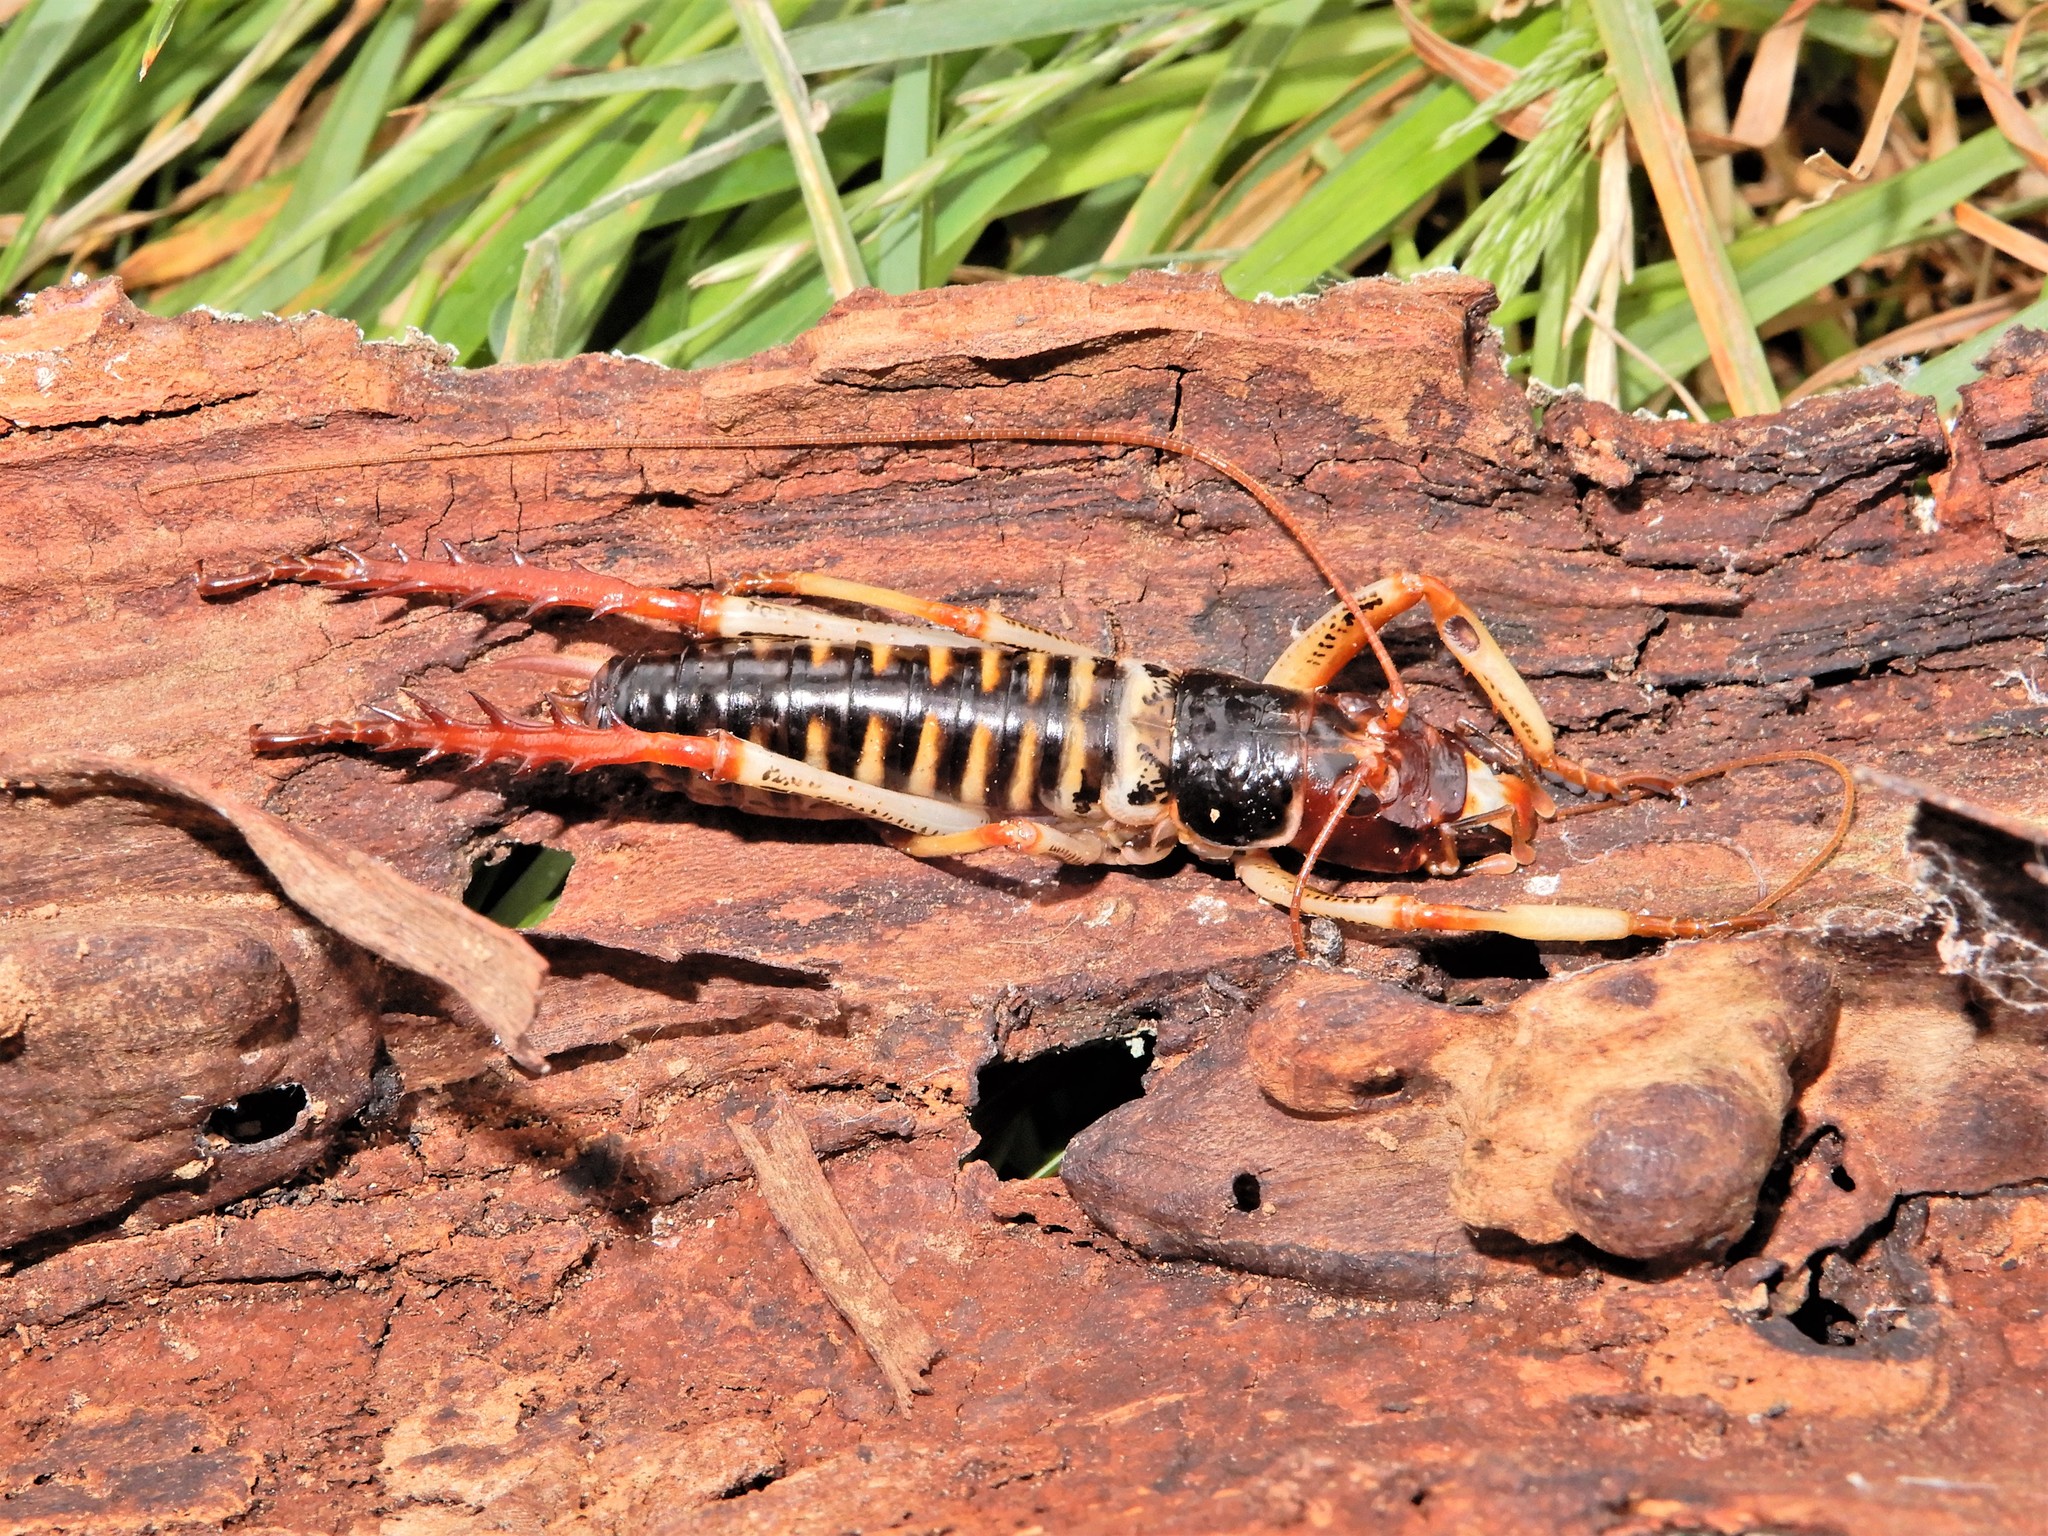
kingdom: Animalia
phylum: Arthropoda
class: Insecta
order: Orthoptera
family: Anostostomatidae
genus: Hemideina
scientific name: Hemideina crassidens
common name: Wellington tree weta
